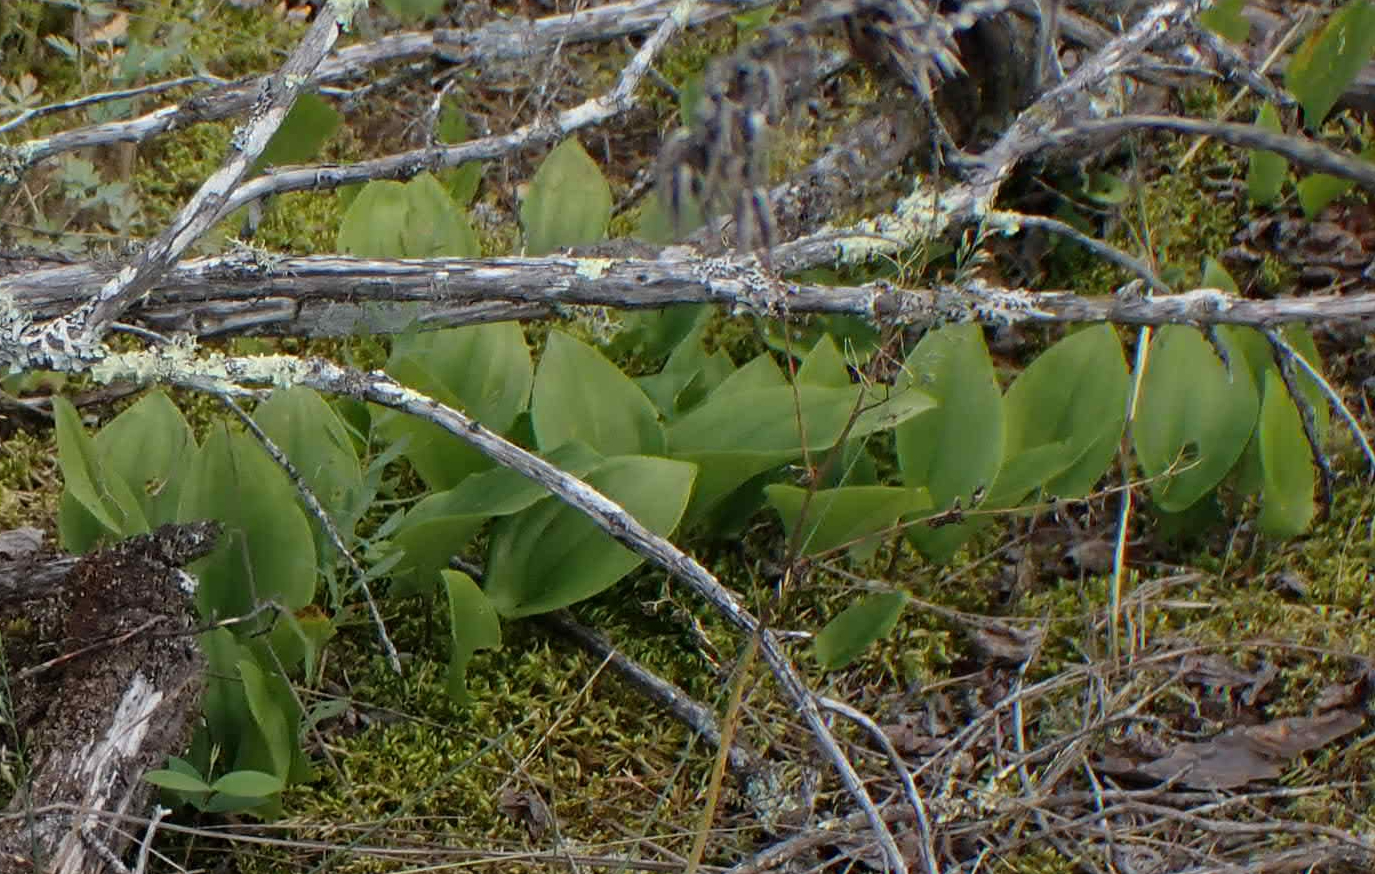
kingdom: Plantae
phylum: Tracheophyta
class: Liliopsida
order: Asparagales
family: Asparagaceae
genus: Maianthemum
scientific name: Maianthemum canadense
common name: False lily-of-the-valley
